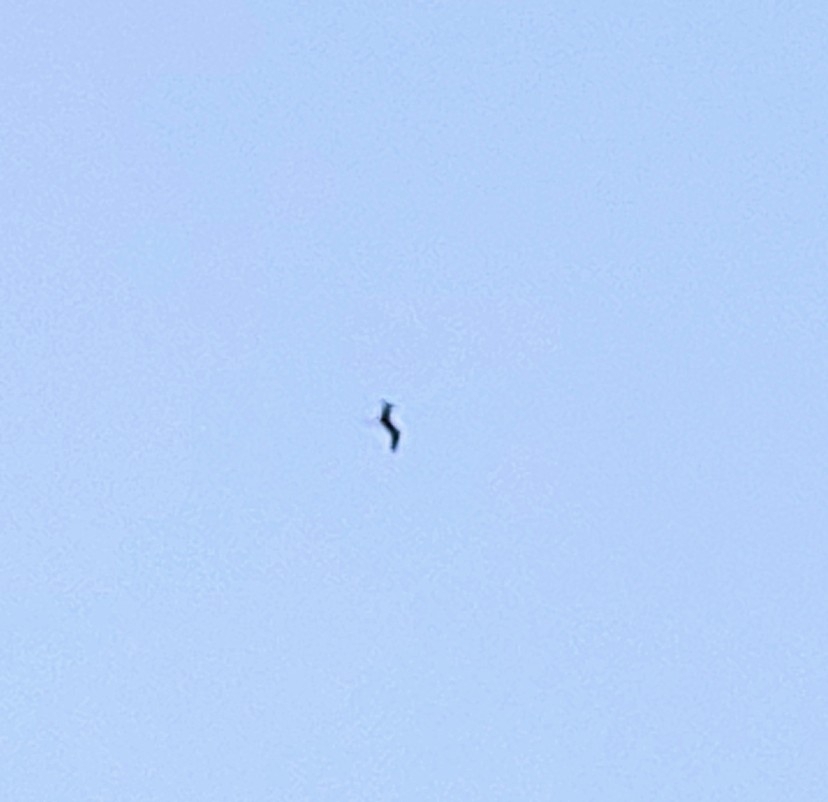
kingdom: Animalia
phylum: Chordata
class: Aves
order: Suliformes
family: Fregatidae
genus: Fregata
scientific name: Fregata magnificens
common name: Magnificent frigatebird
